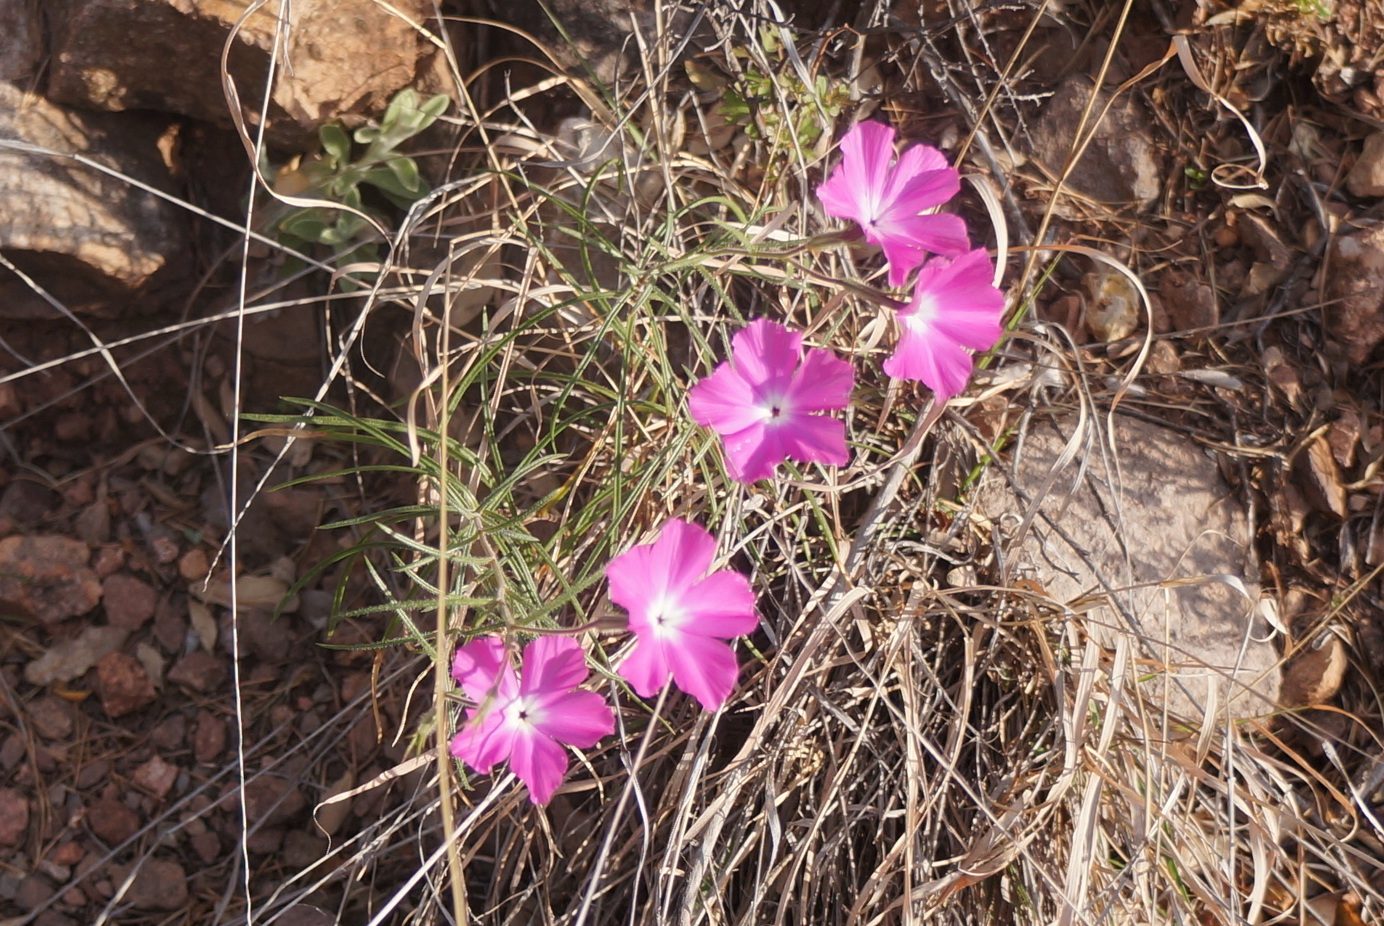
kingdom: Plantae
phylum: Tracheophyta
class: Magnoliopsida
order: Ericales
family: Polemoniaceae
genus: Phlox
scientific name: Phlox nana
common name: Santa fe phlox
